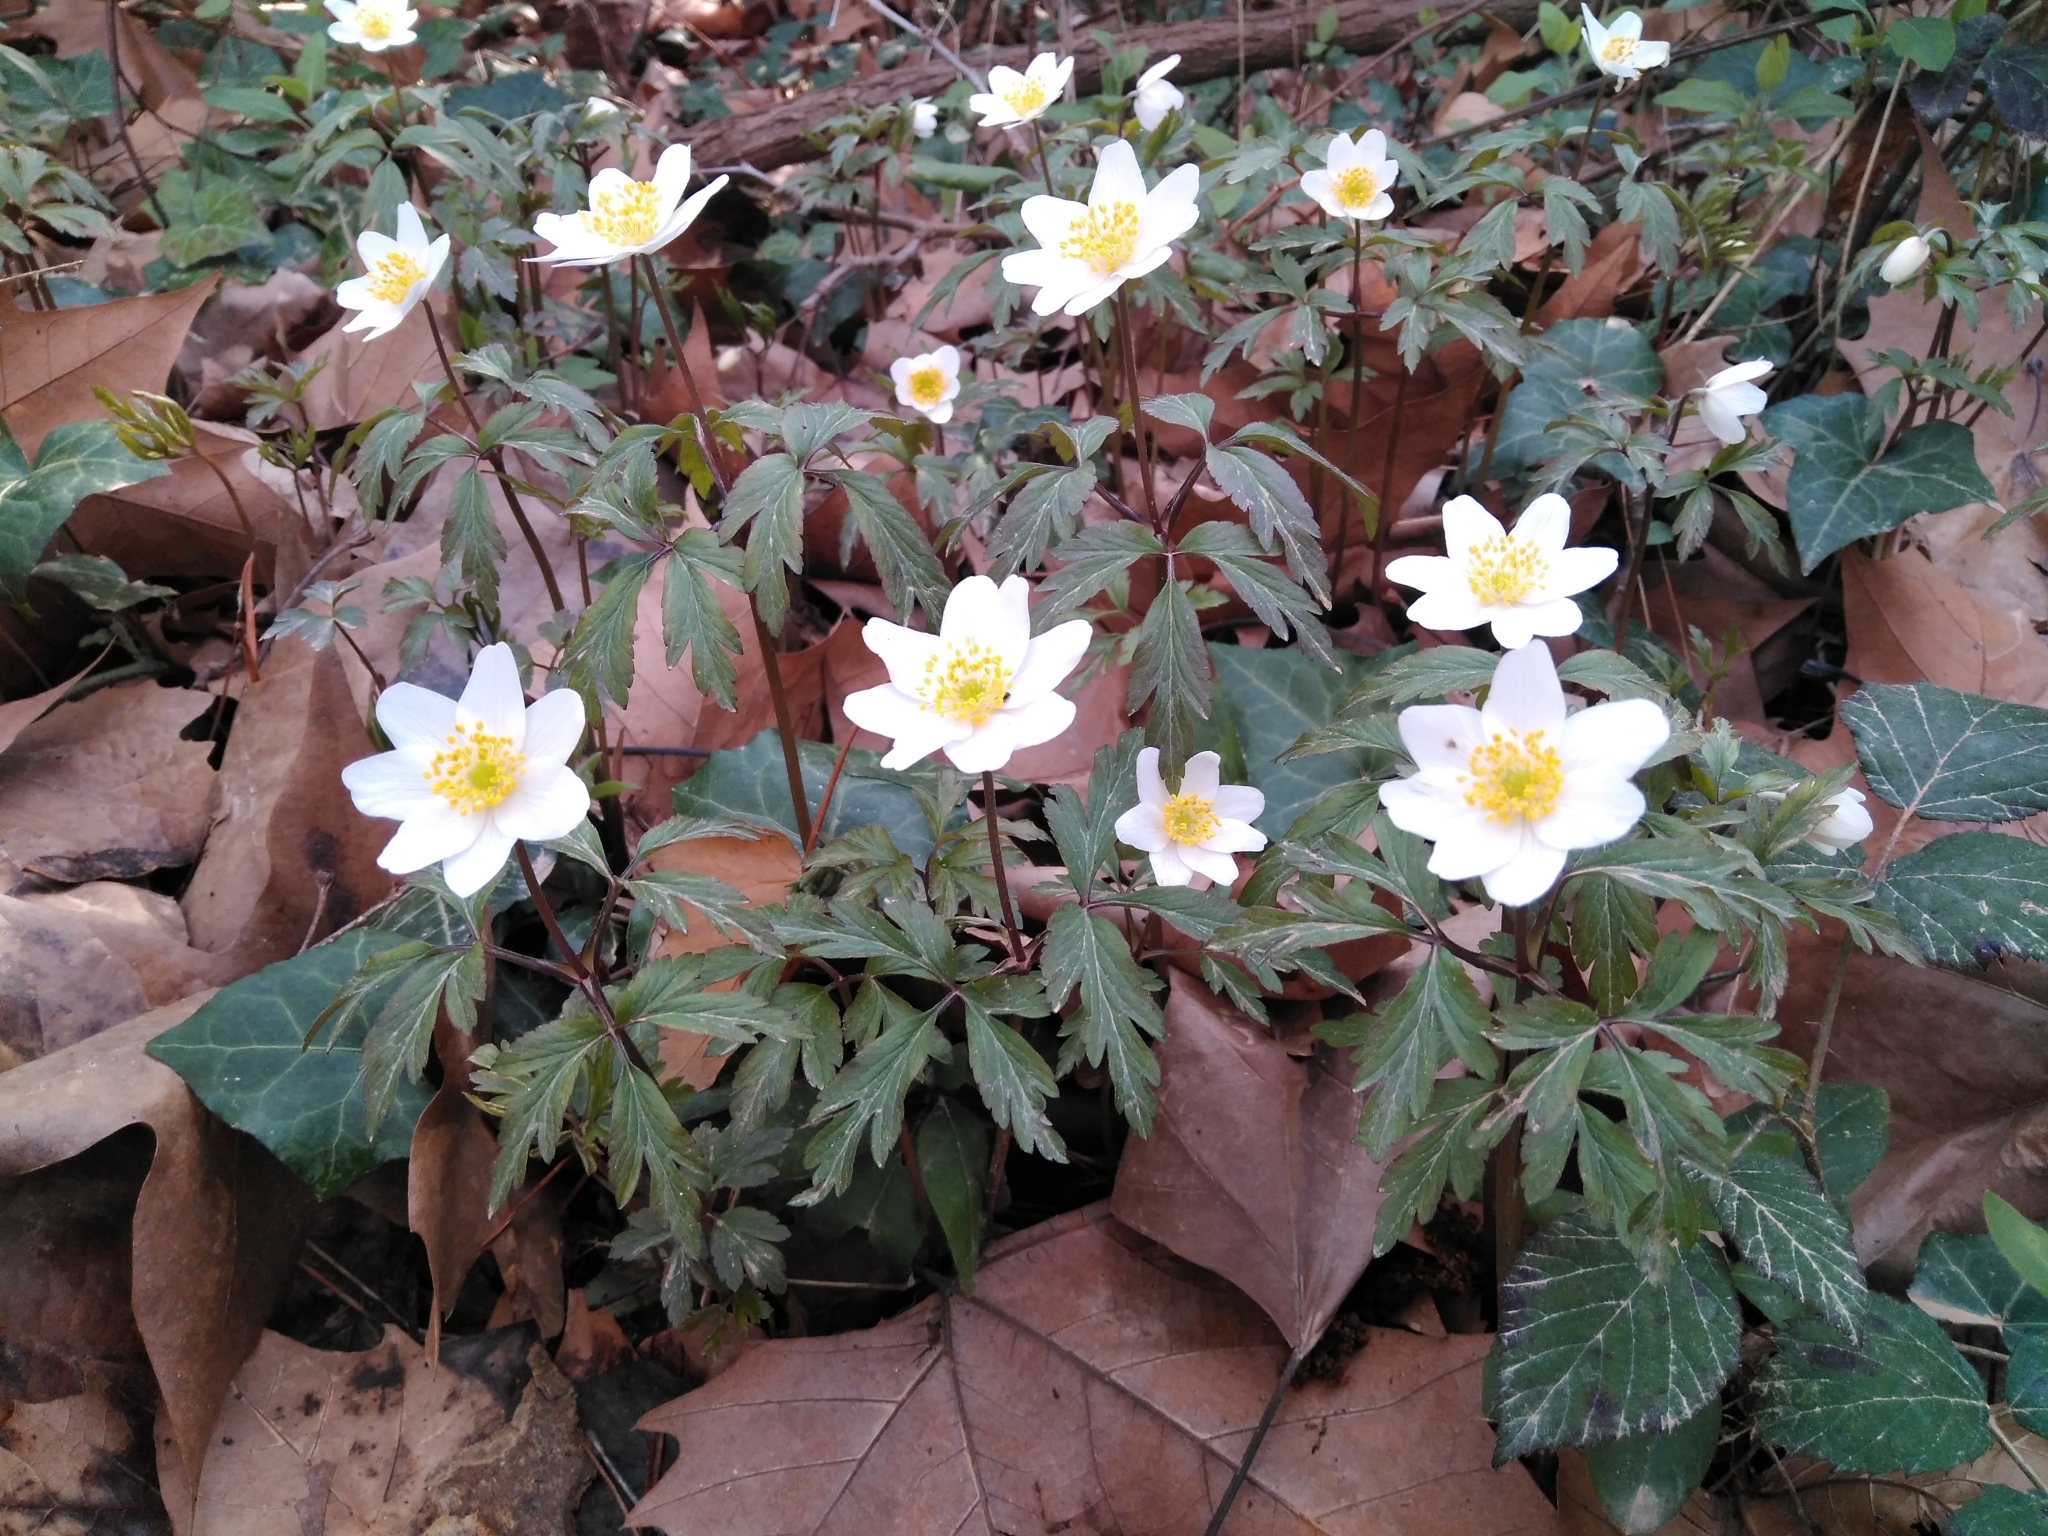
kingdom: Plantae
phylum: Tracheophyta
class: Magnoliopsida
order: Ranunculales
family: Ranunculaceae
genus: Anemone
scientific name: Anemone nemorosa
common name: Wood anemone
